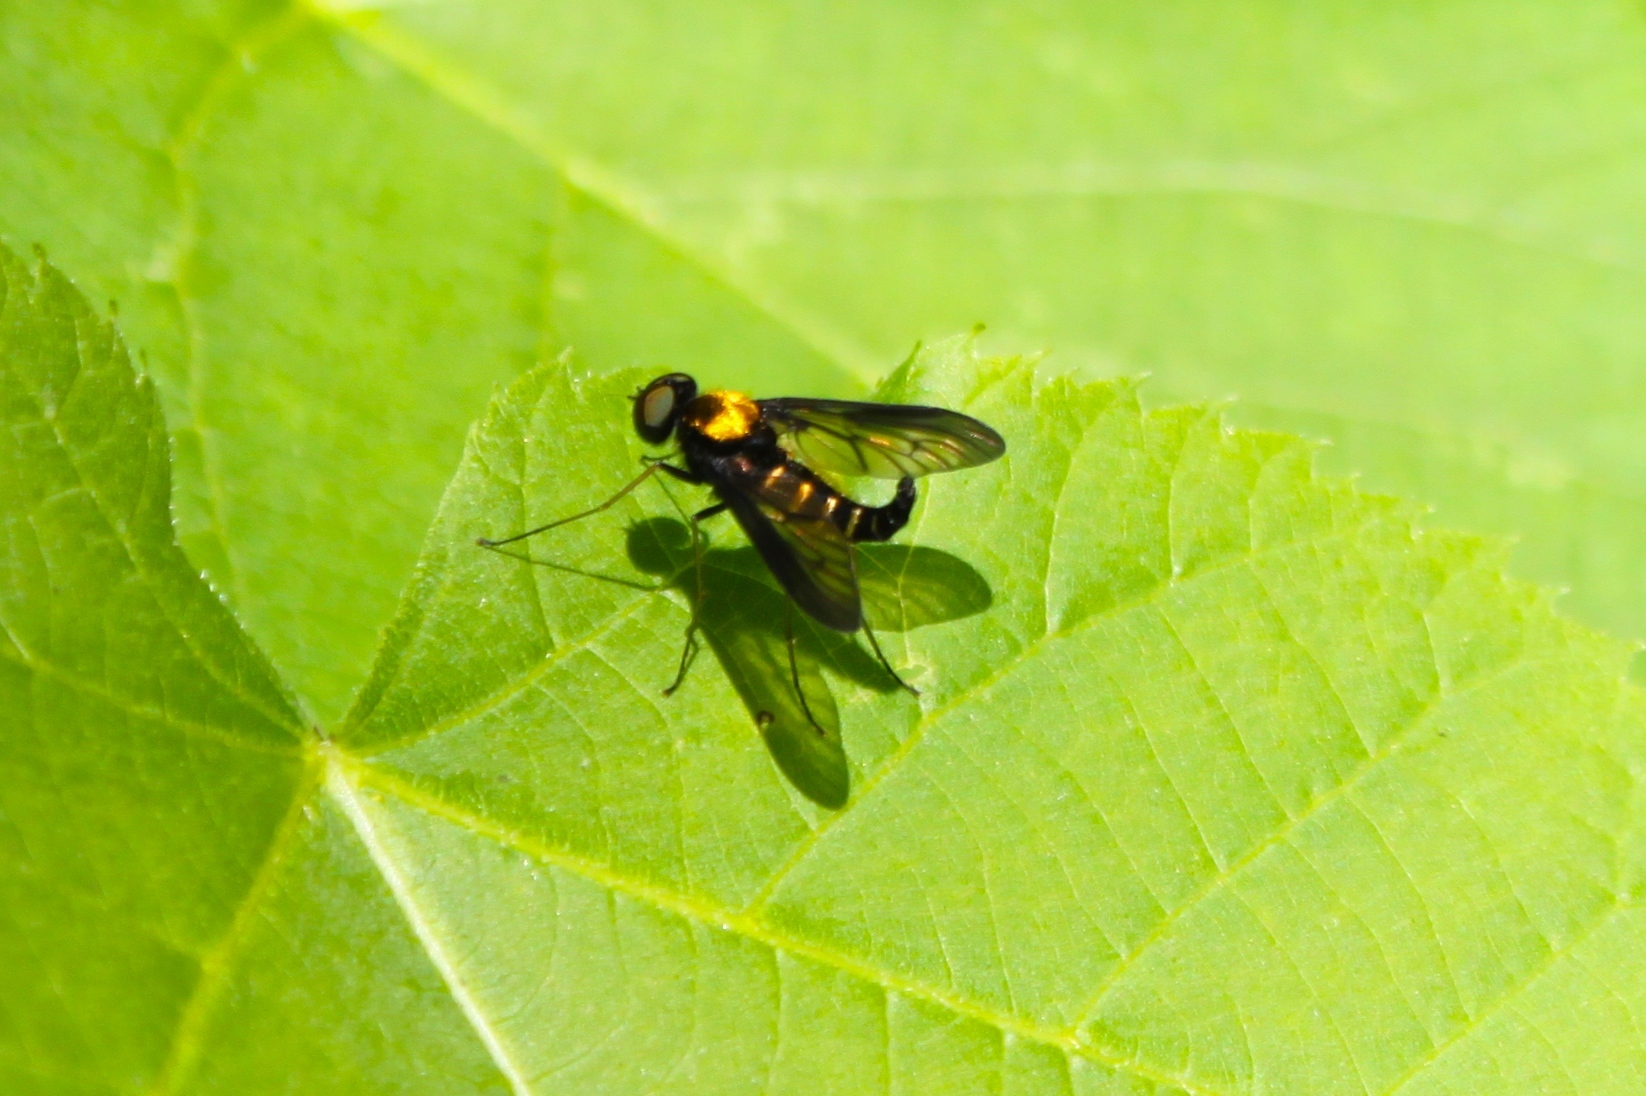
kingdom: Animalia
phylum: Arthropoda
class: Insecta
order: Diptera
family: Rhagionidae
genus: Chrysopilus
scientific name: Chrysopilus thoracicus
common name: Golden-backed snipe fly
